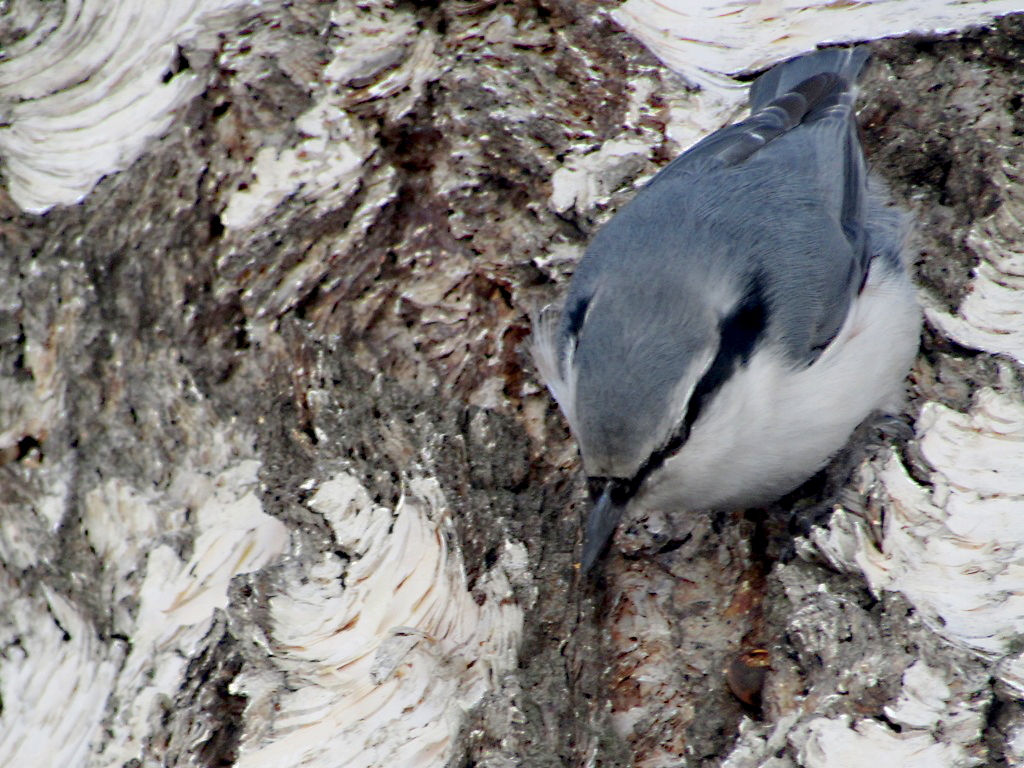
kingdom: Animalia
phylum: Chordata
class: Aves
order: Passeriformes
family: Sittidae
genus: Sitta
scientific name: Sitta europaea
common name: Eurasian nuthatch
